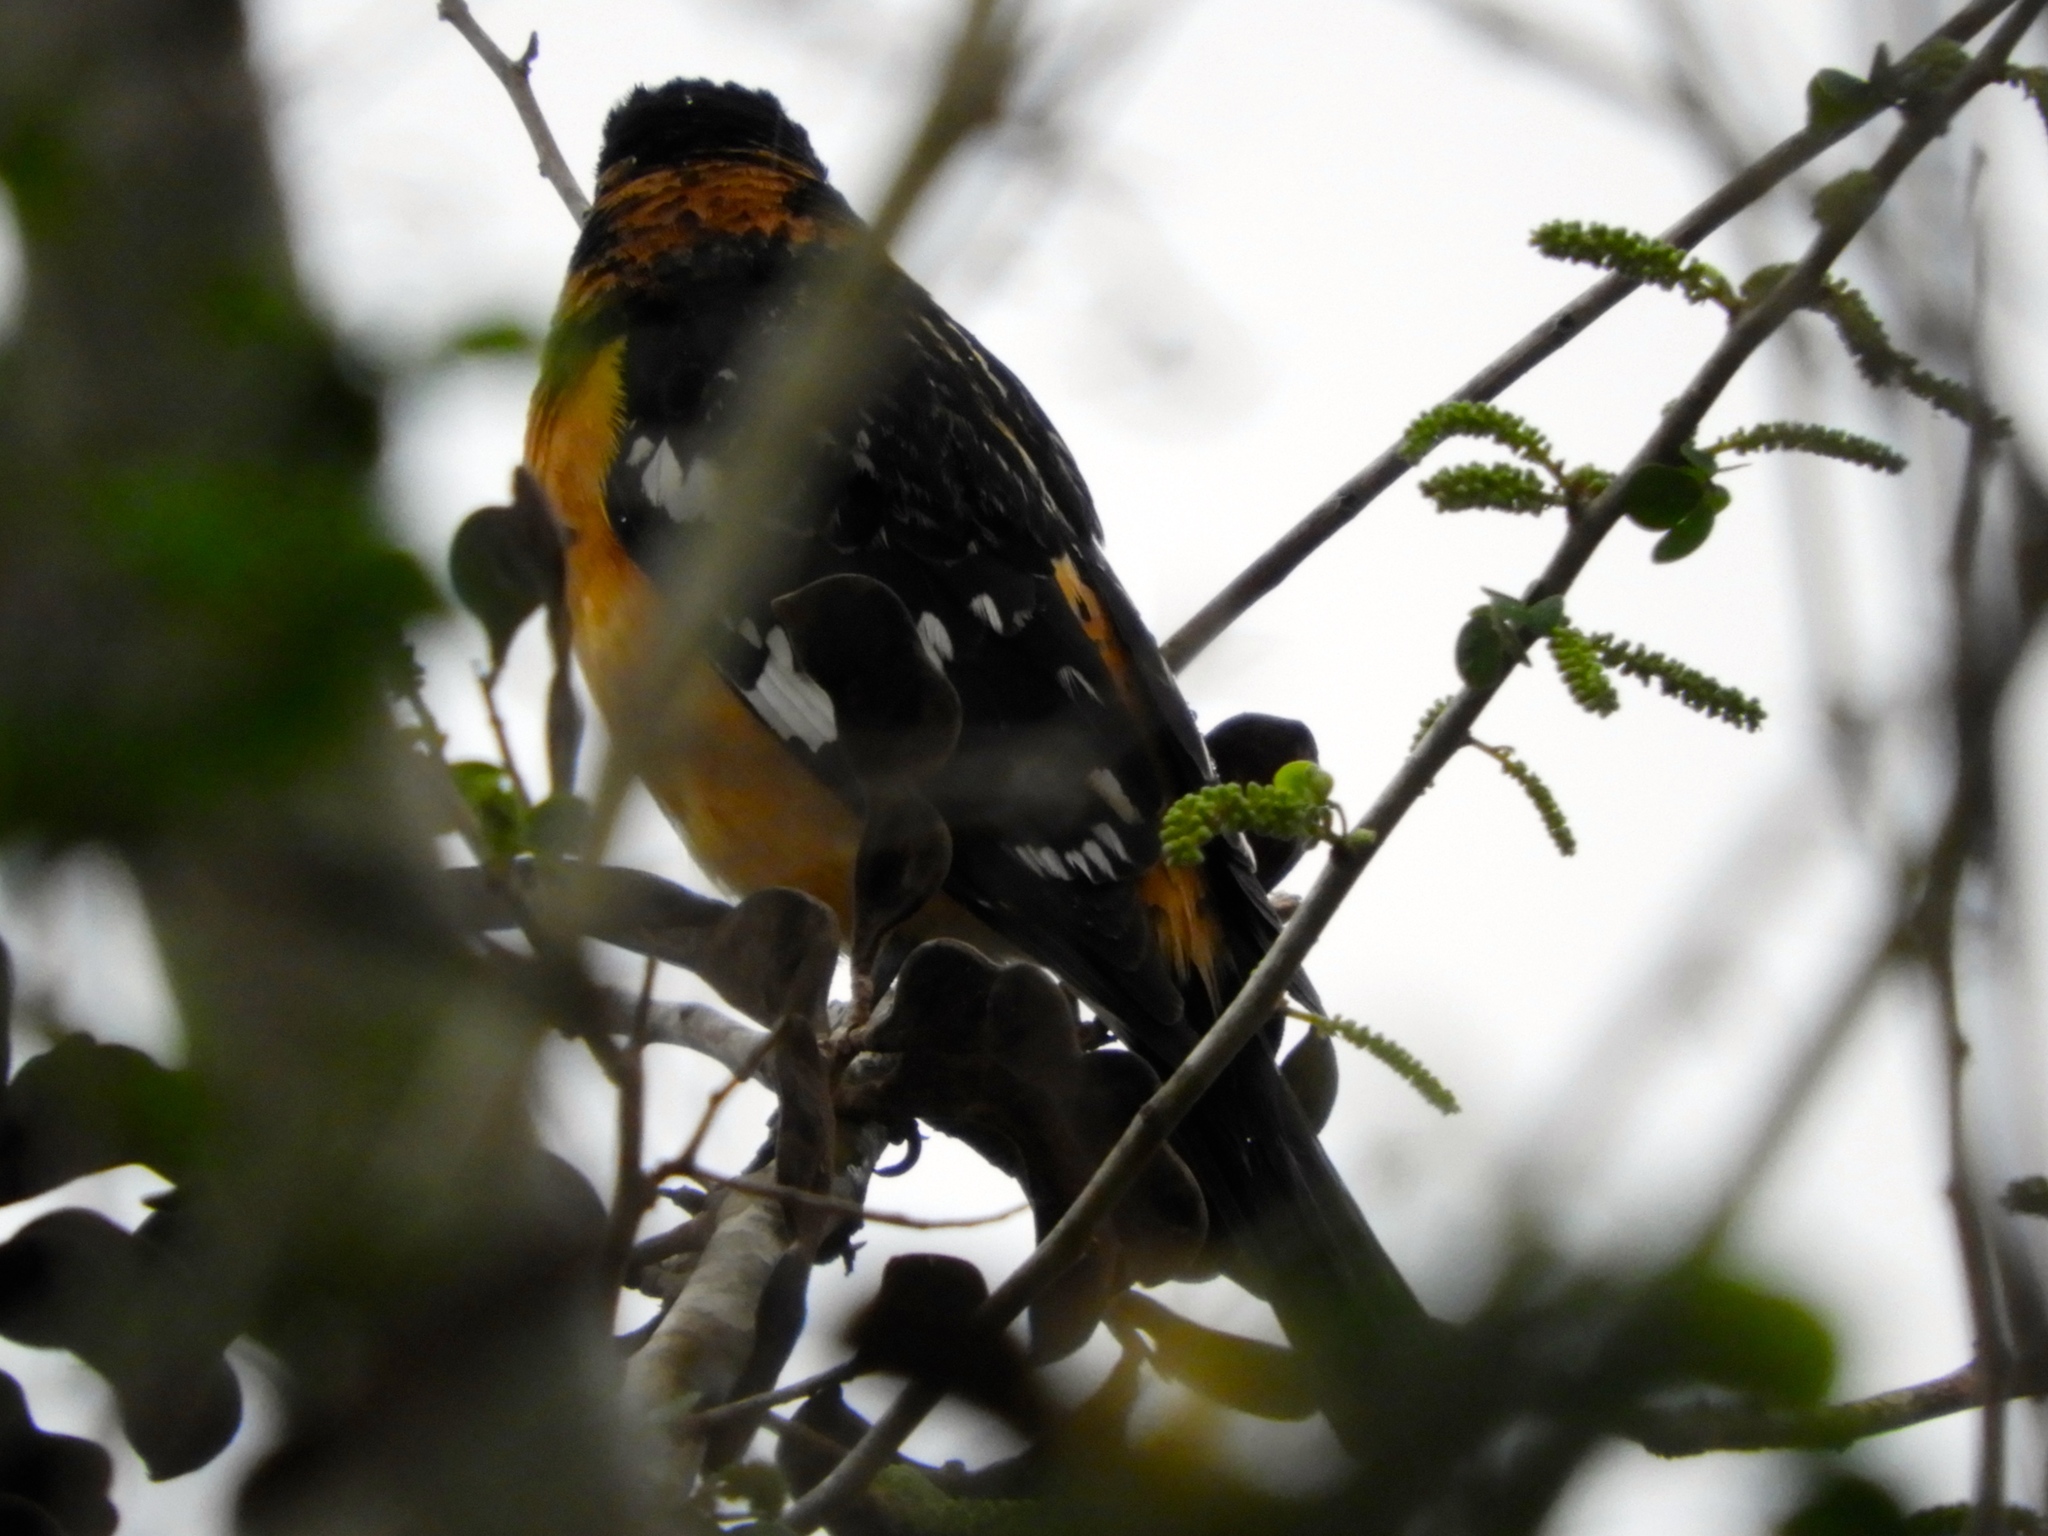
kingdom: Animalia
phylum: Chordata
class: Aves
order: Passeriformes
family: Cardinalidae
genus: Pheucticus
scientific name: Pheucticus melanocephalus
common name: Black-headed grosbeak
